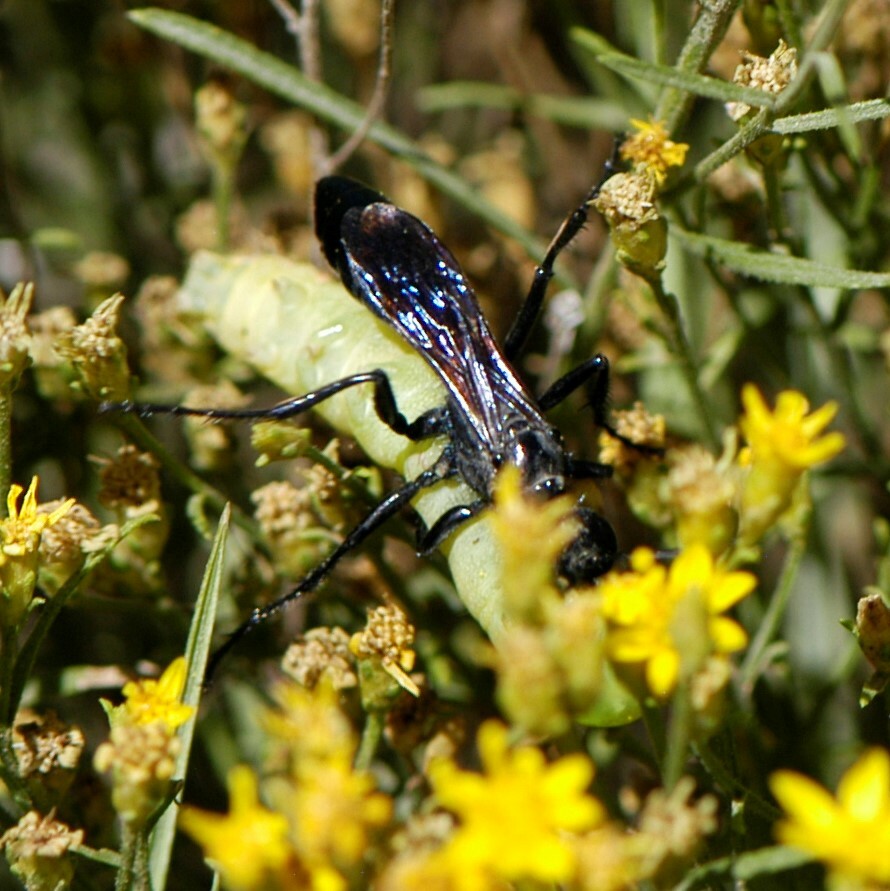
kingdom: Animalia
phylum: Arthropoda
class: Insecta
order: Hymenoptera
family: Sphecidae
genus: Podalonia
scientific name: Podalonia
